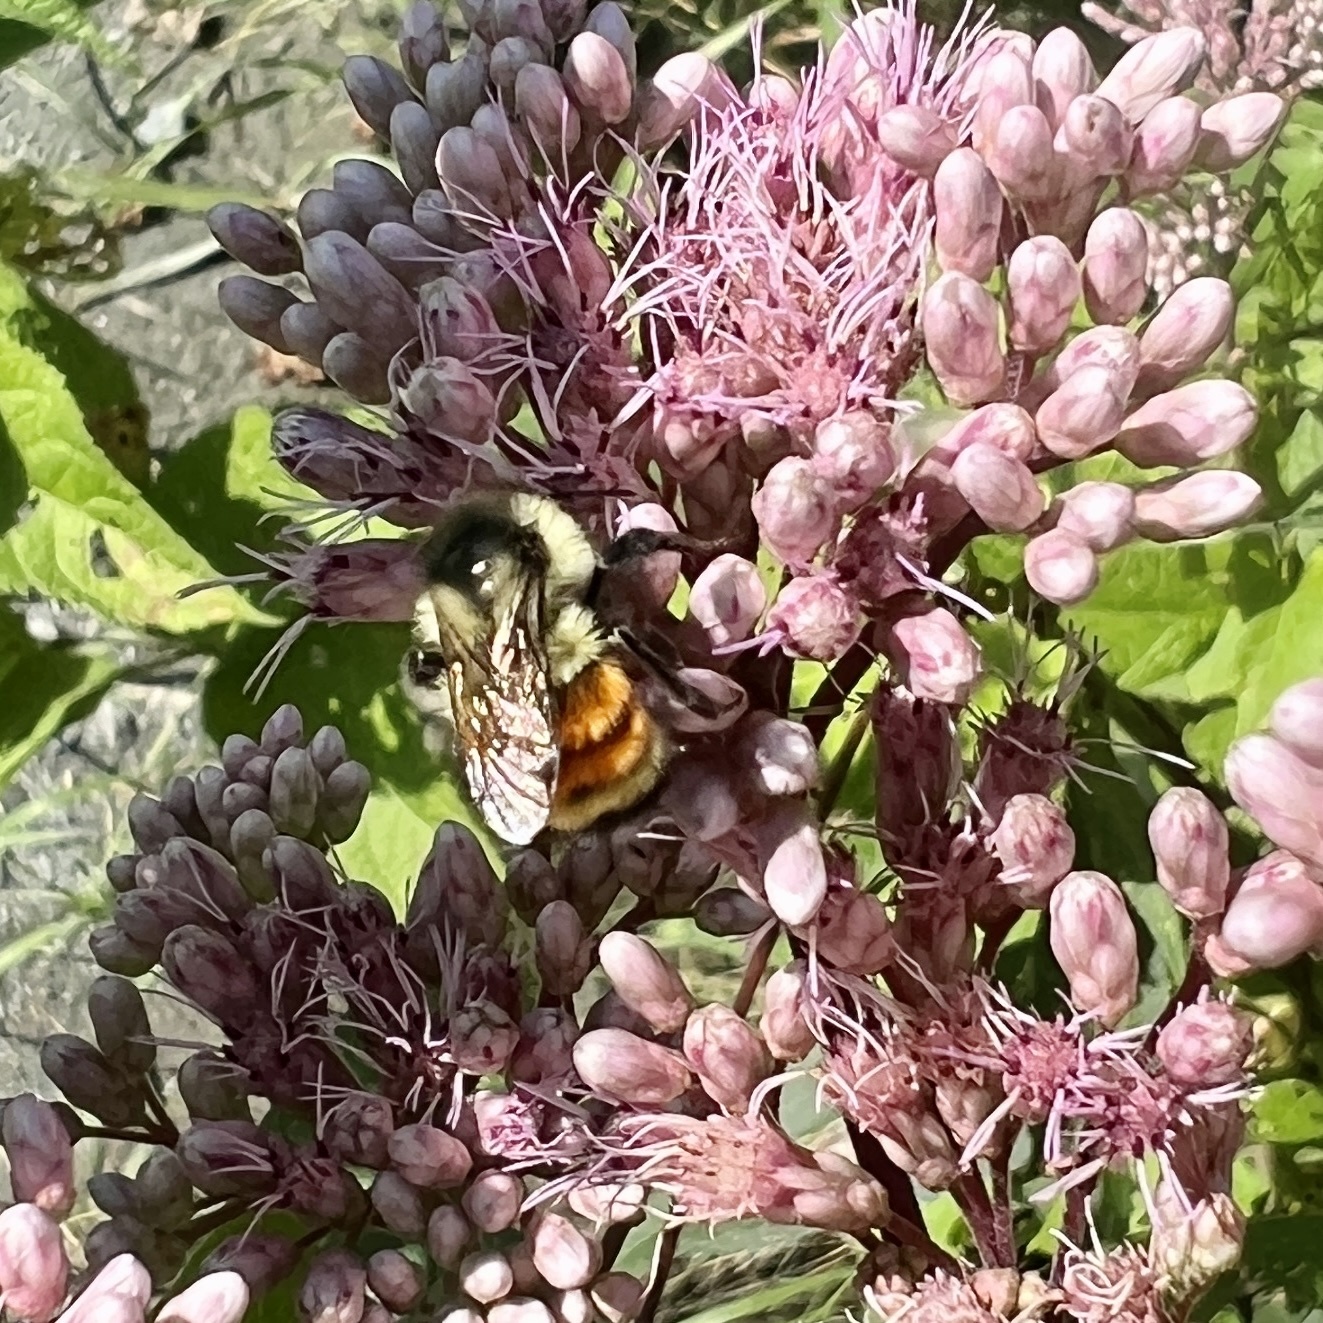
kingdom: Animalia
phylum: Arthropoda
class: Insecta
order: Hymenoptera
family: Apidae
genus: Bombus
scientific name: Bombus ternarius
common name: Tri-colored bumble bee
